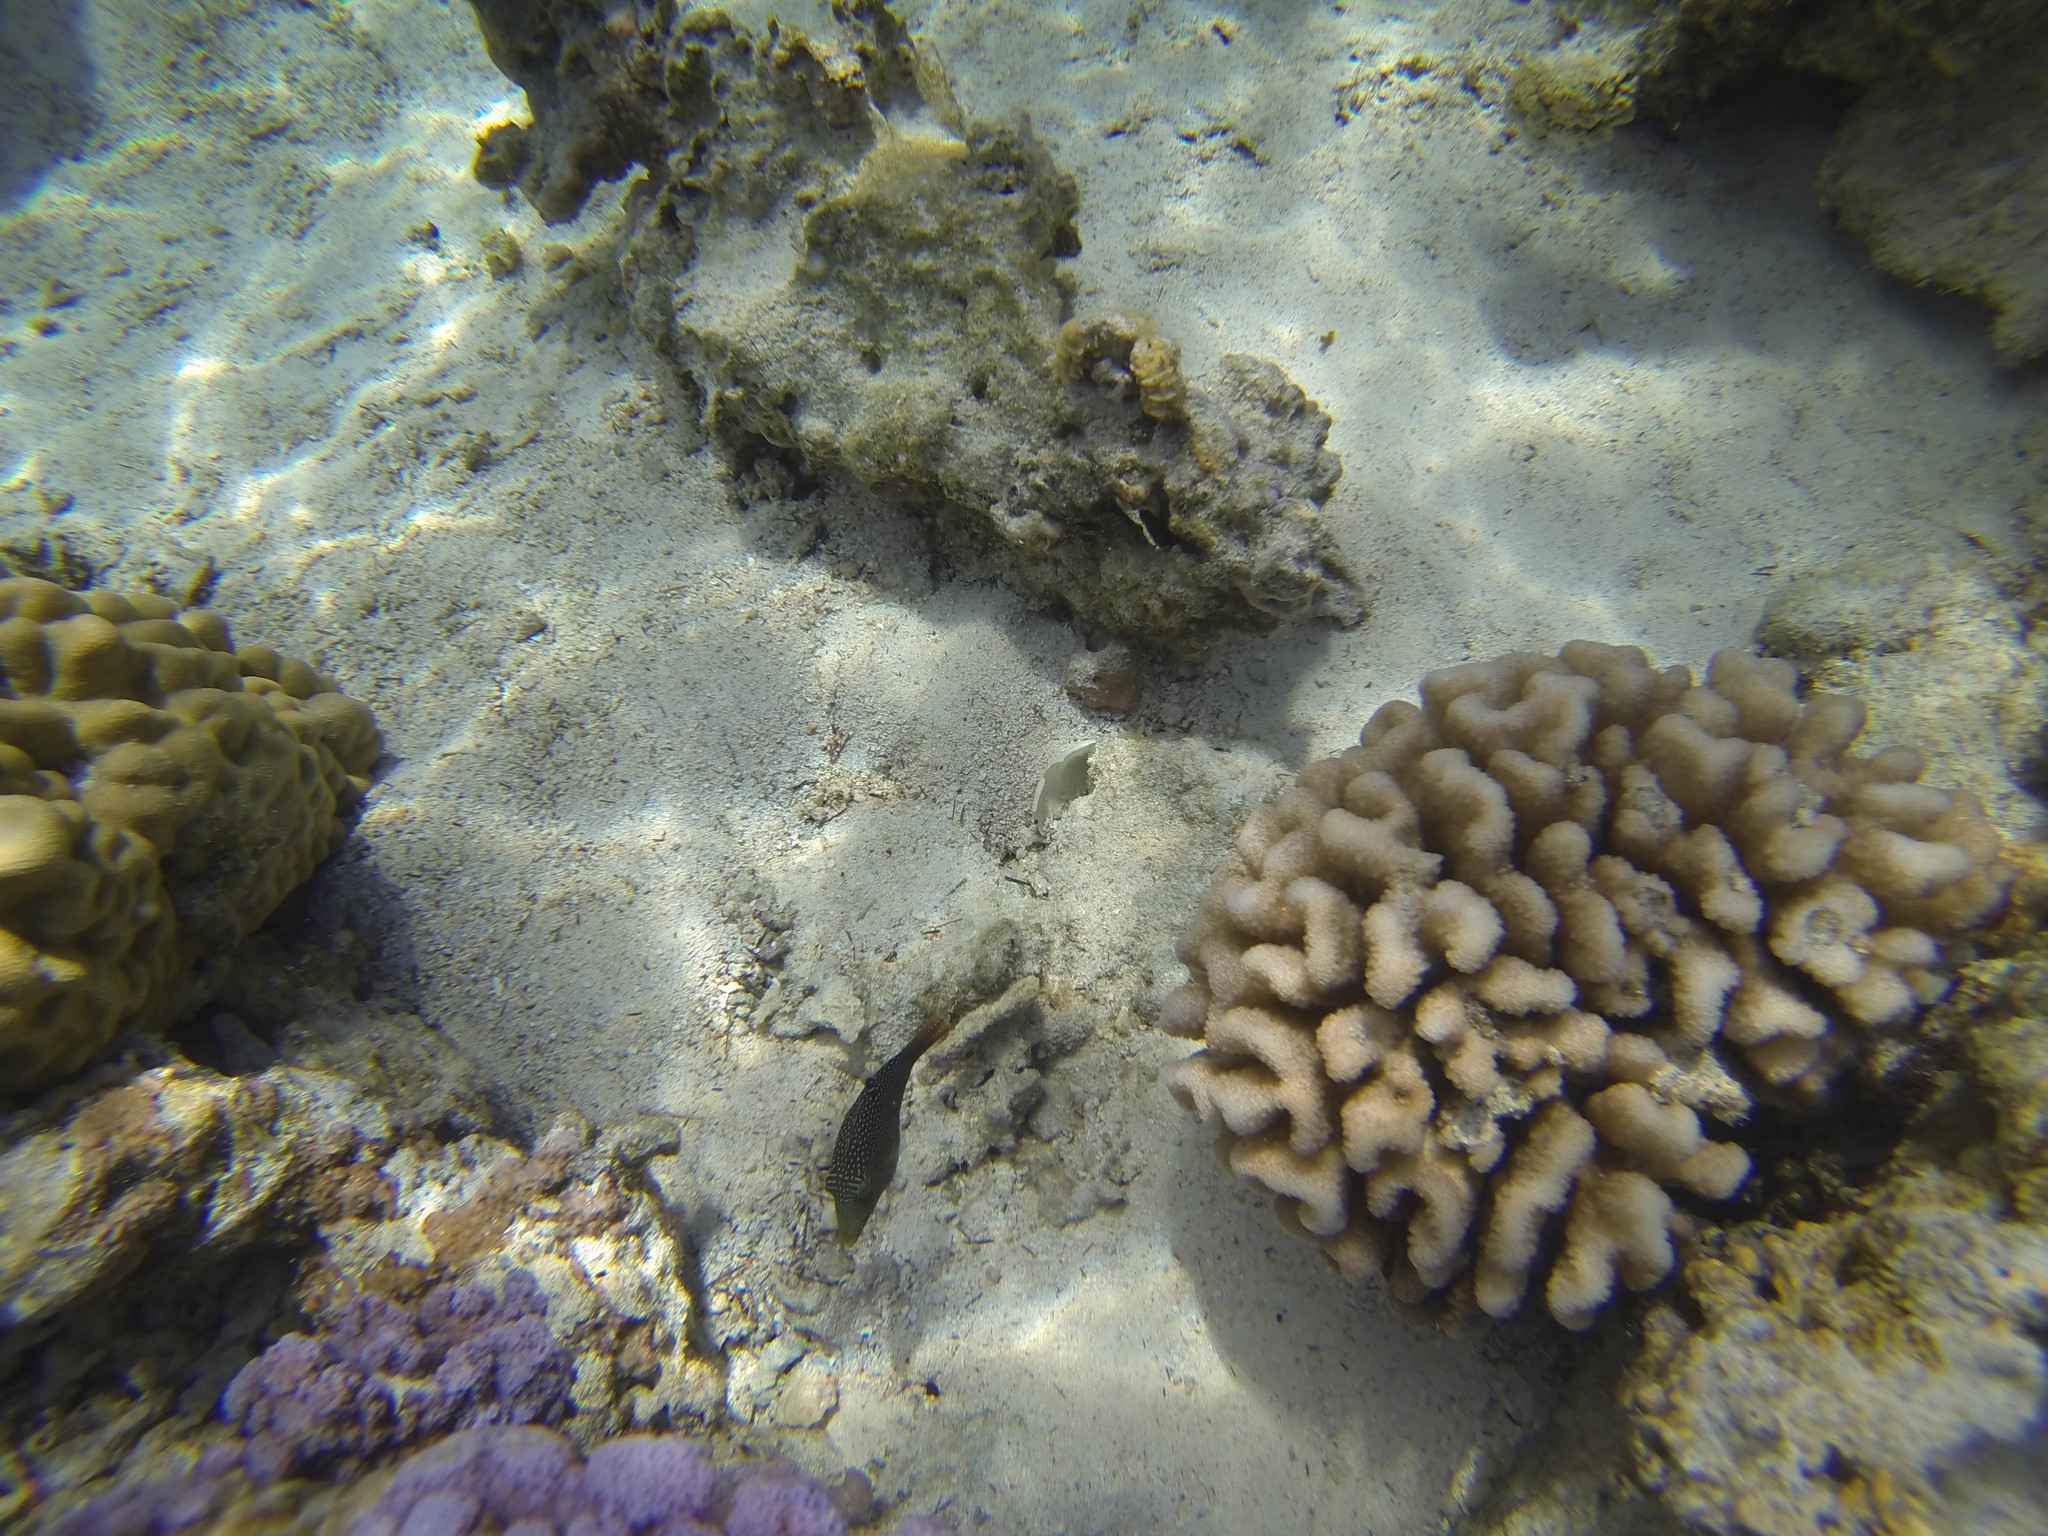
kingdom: Animalia
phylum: Cnidaria
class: Anthozoa
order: Scleractinia
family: Pocilloporidae
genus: Pocillopora
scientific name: Pocillopora meandrina
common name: Cauliflower coral
